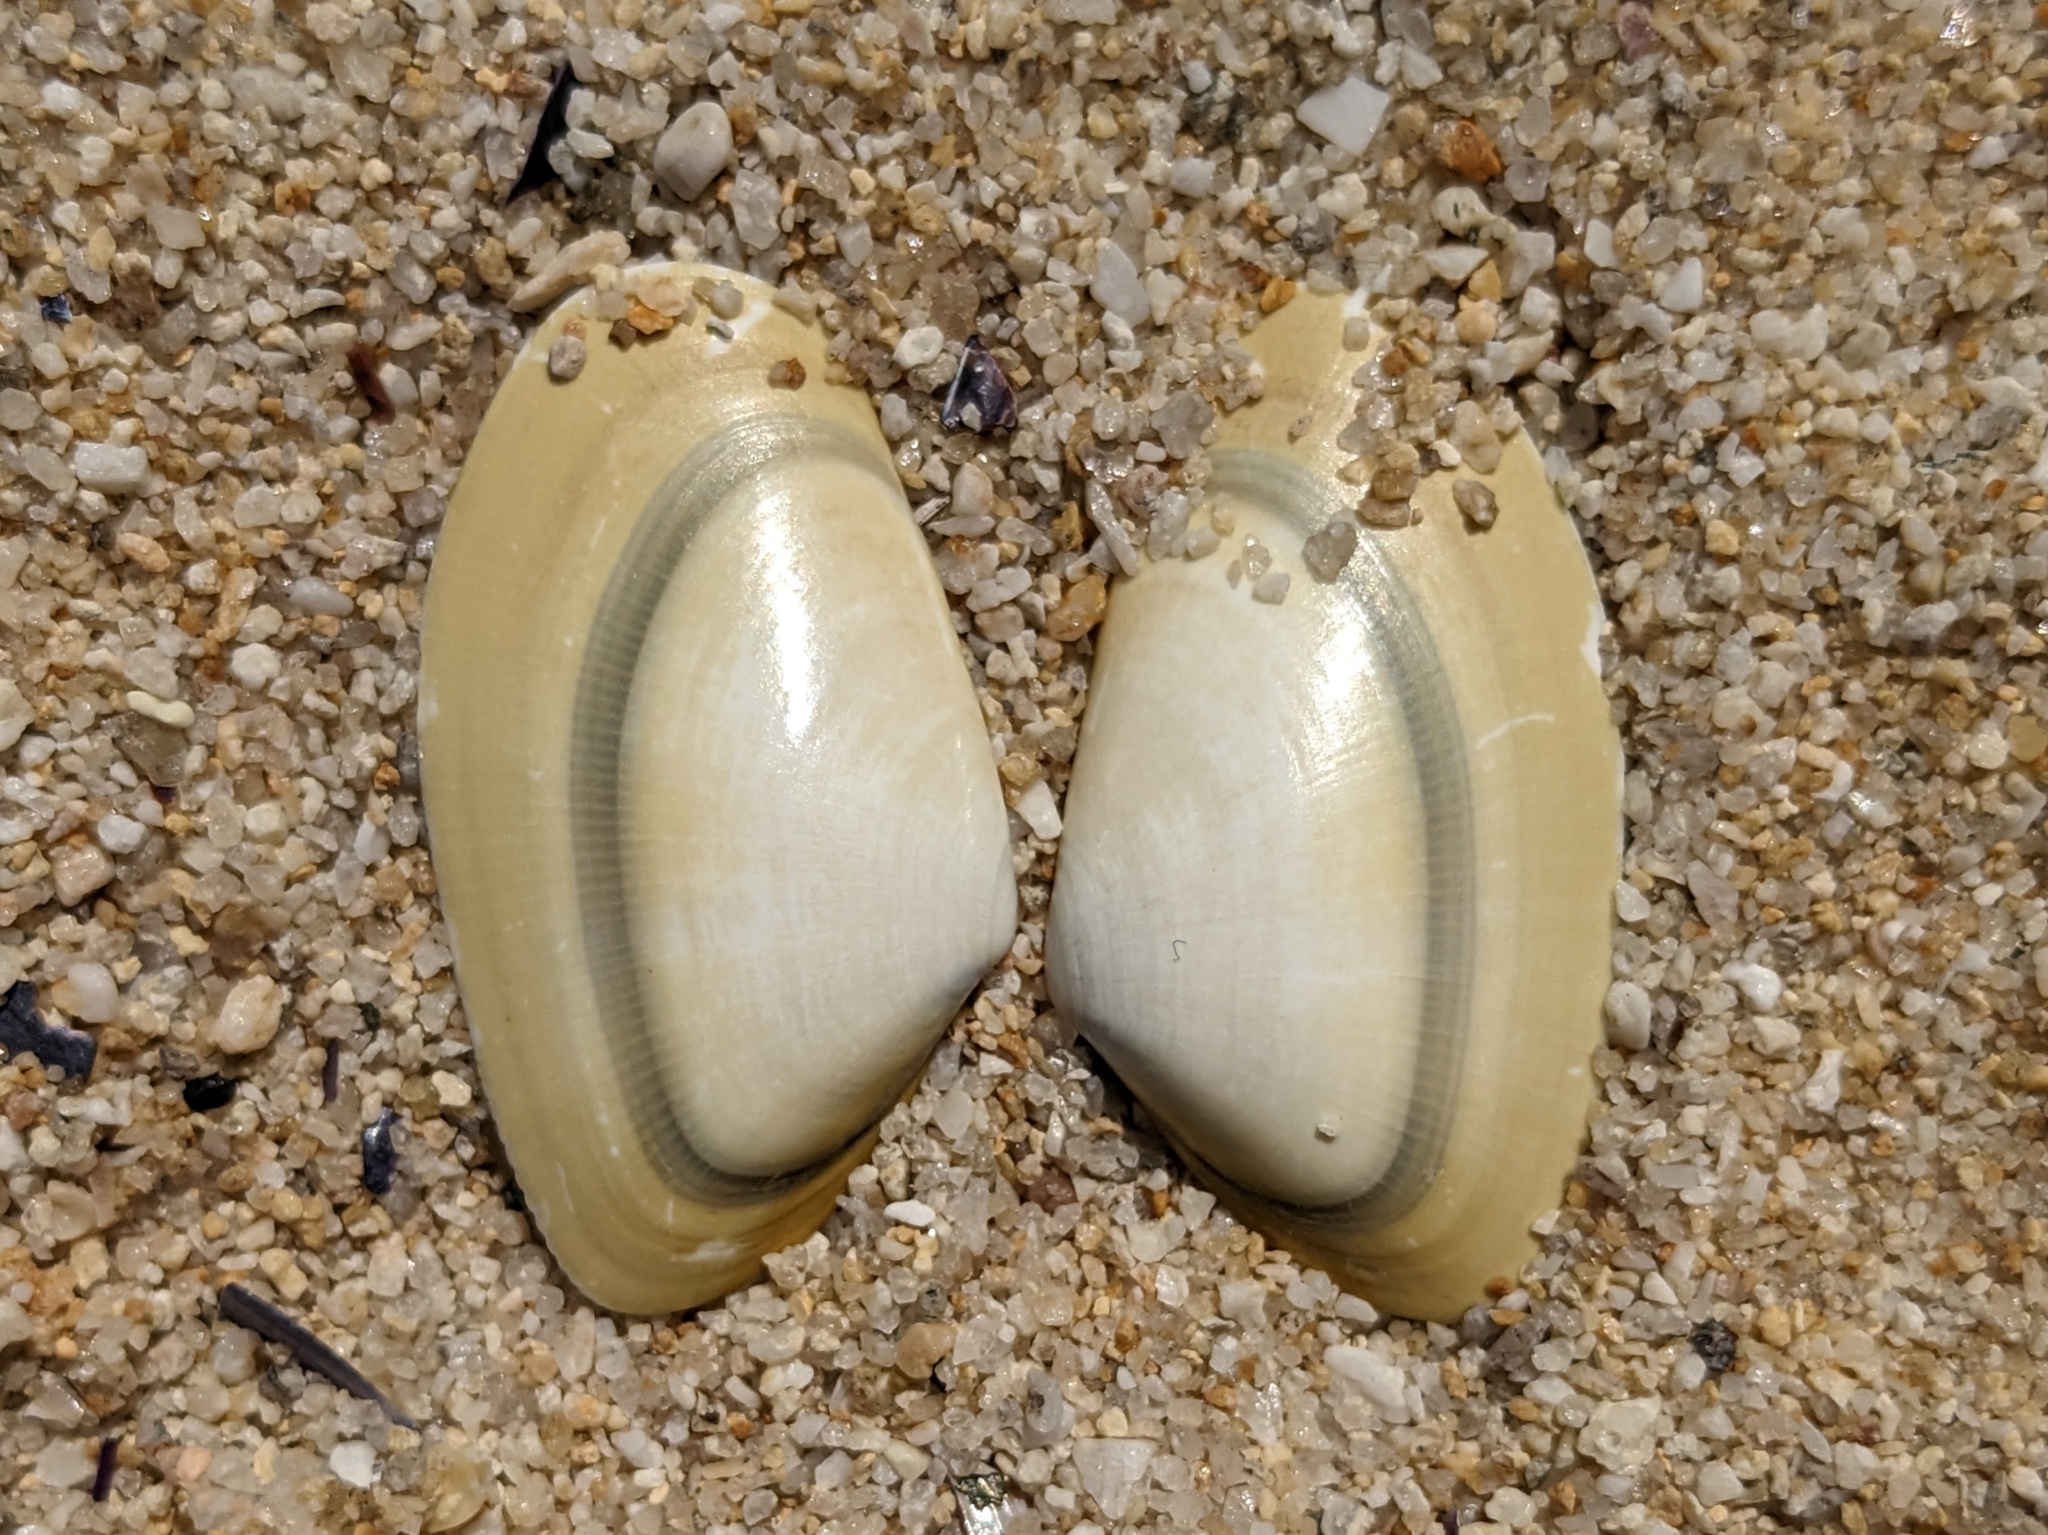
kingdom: Animalia
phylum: Mollusca
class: Bivalvia
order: Cardiida
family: Donacidae
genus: Donax
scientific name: Donax vittatus
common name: Banded wedge-shell
